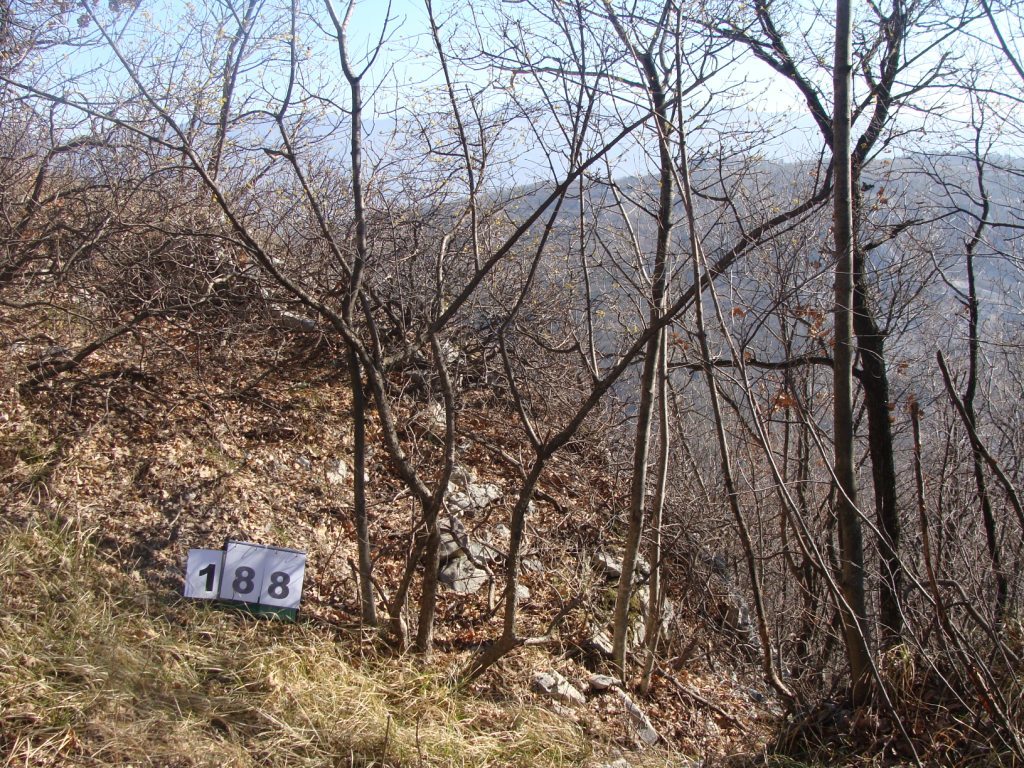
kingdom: Plantae
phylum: Tracheophyta
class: Magnoliopsida
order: Cornales
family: Cornaceae
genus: Cornus
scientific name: Cornus mas
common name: Cornelian-cherry
